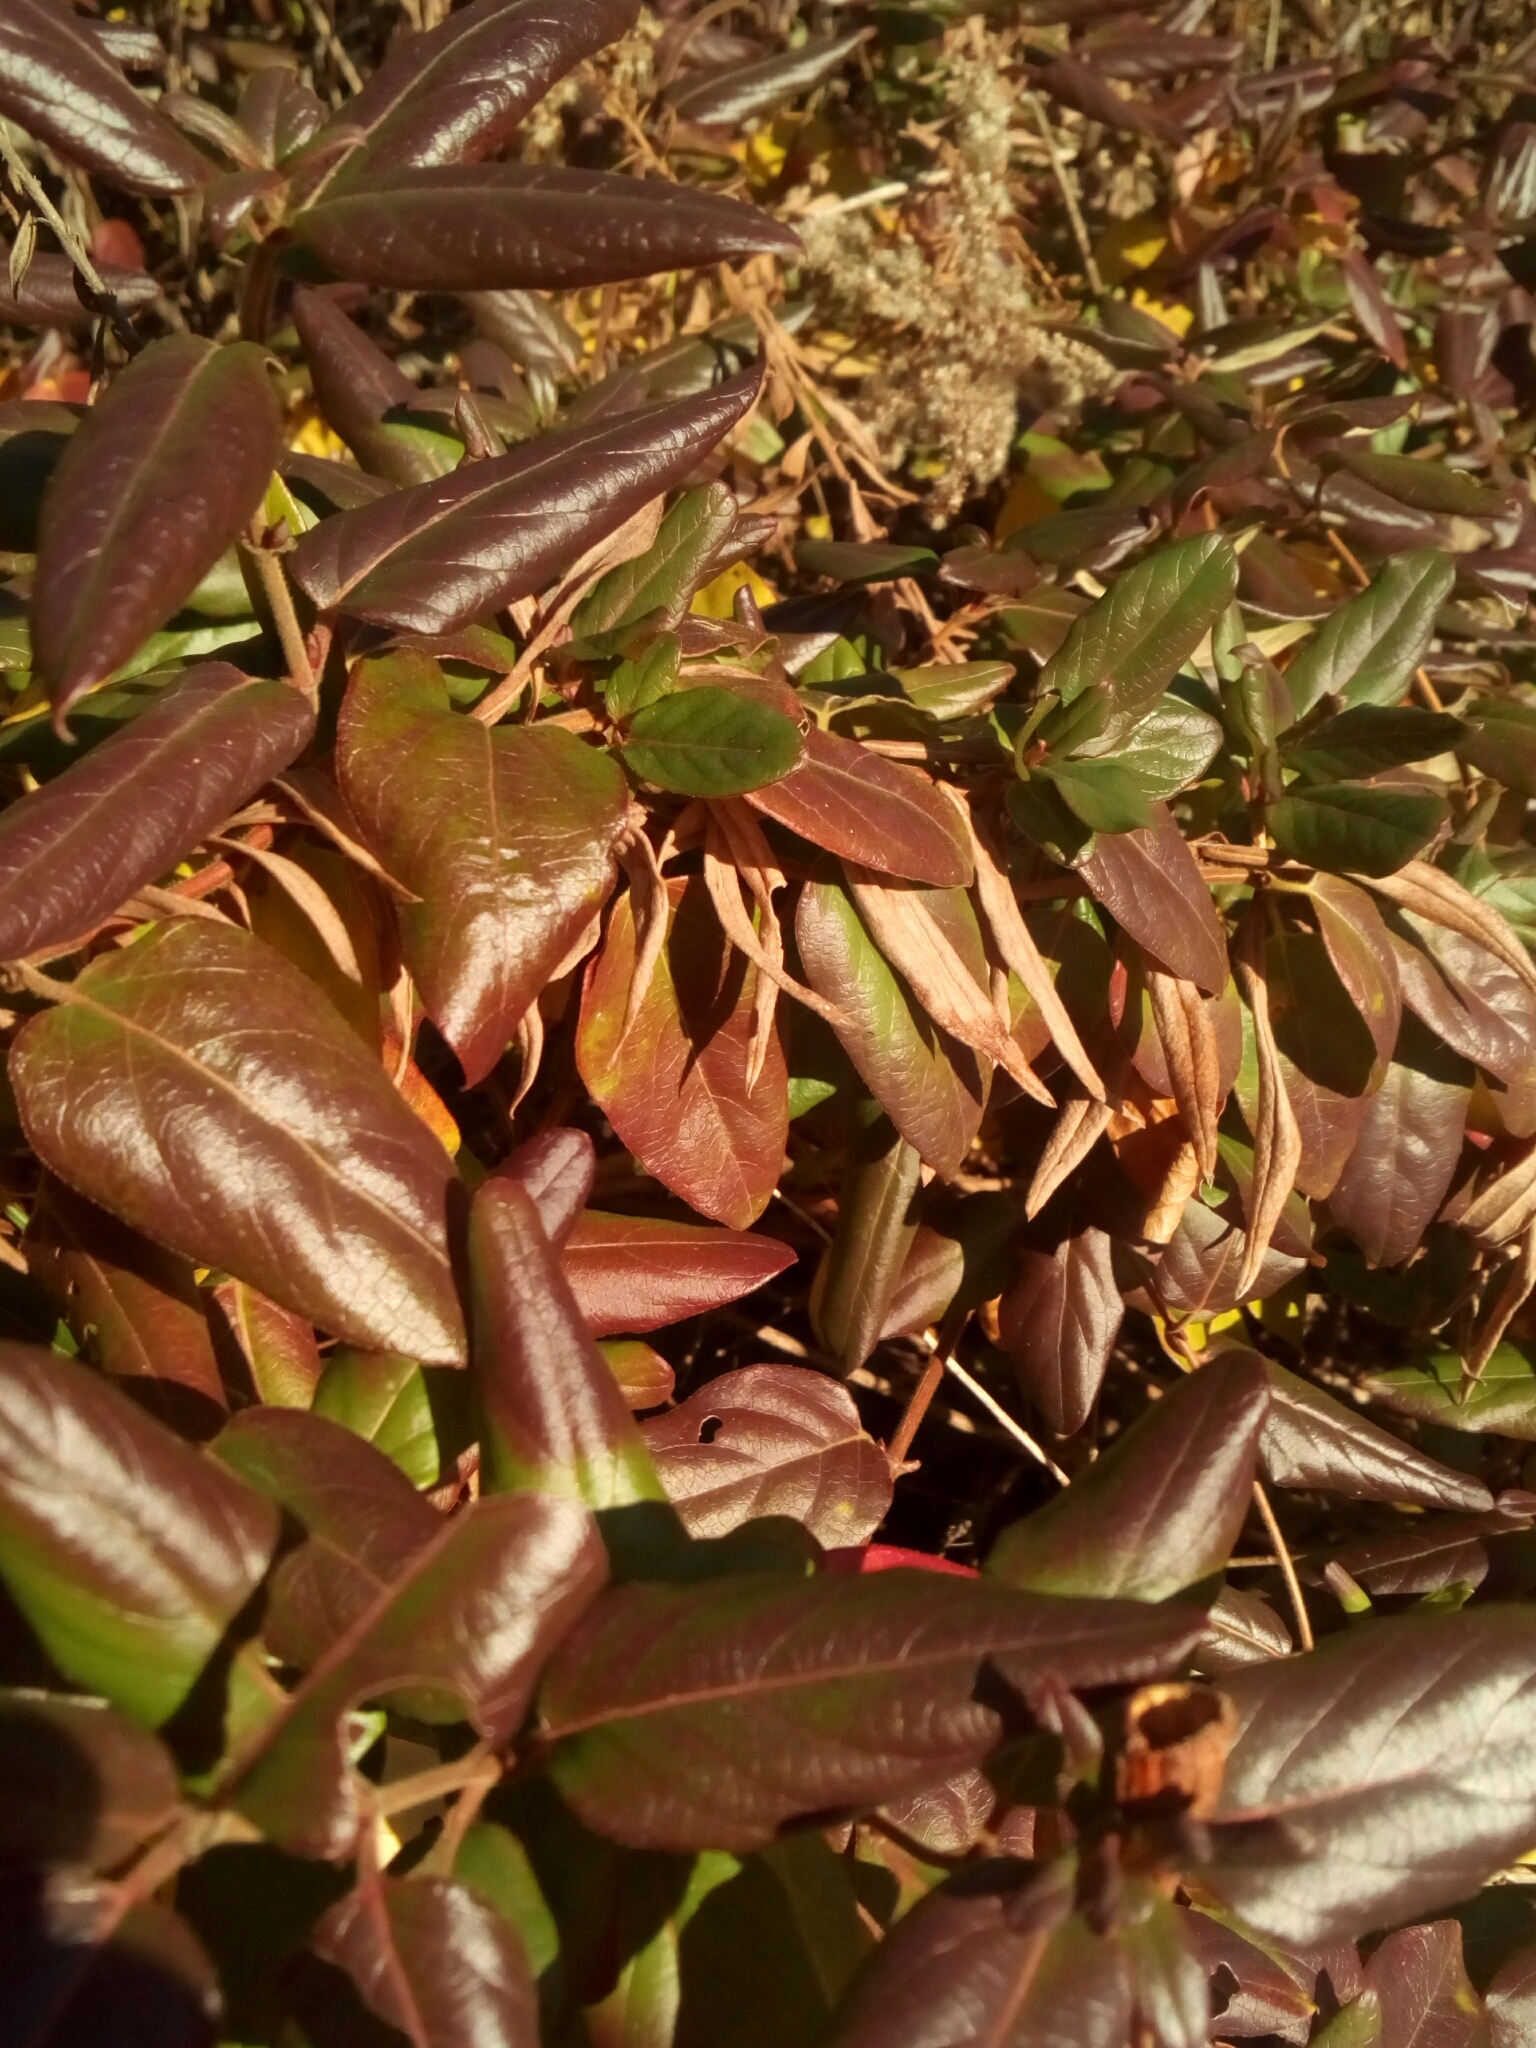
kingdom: Plantae
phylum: Tracheophyta
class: Magnoliopsida
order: Dipsacales
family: Caprifoliaceae
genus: Lonicera
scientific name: Lonicera japonica
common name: Japanese honeysuckle
